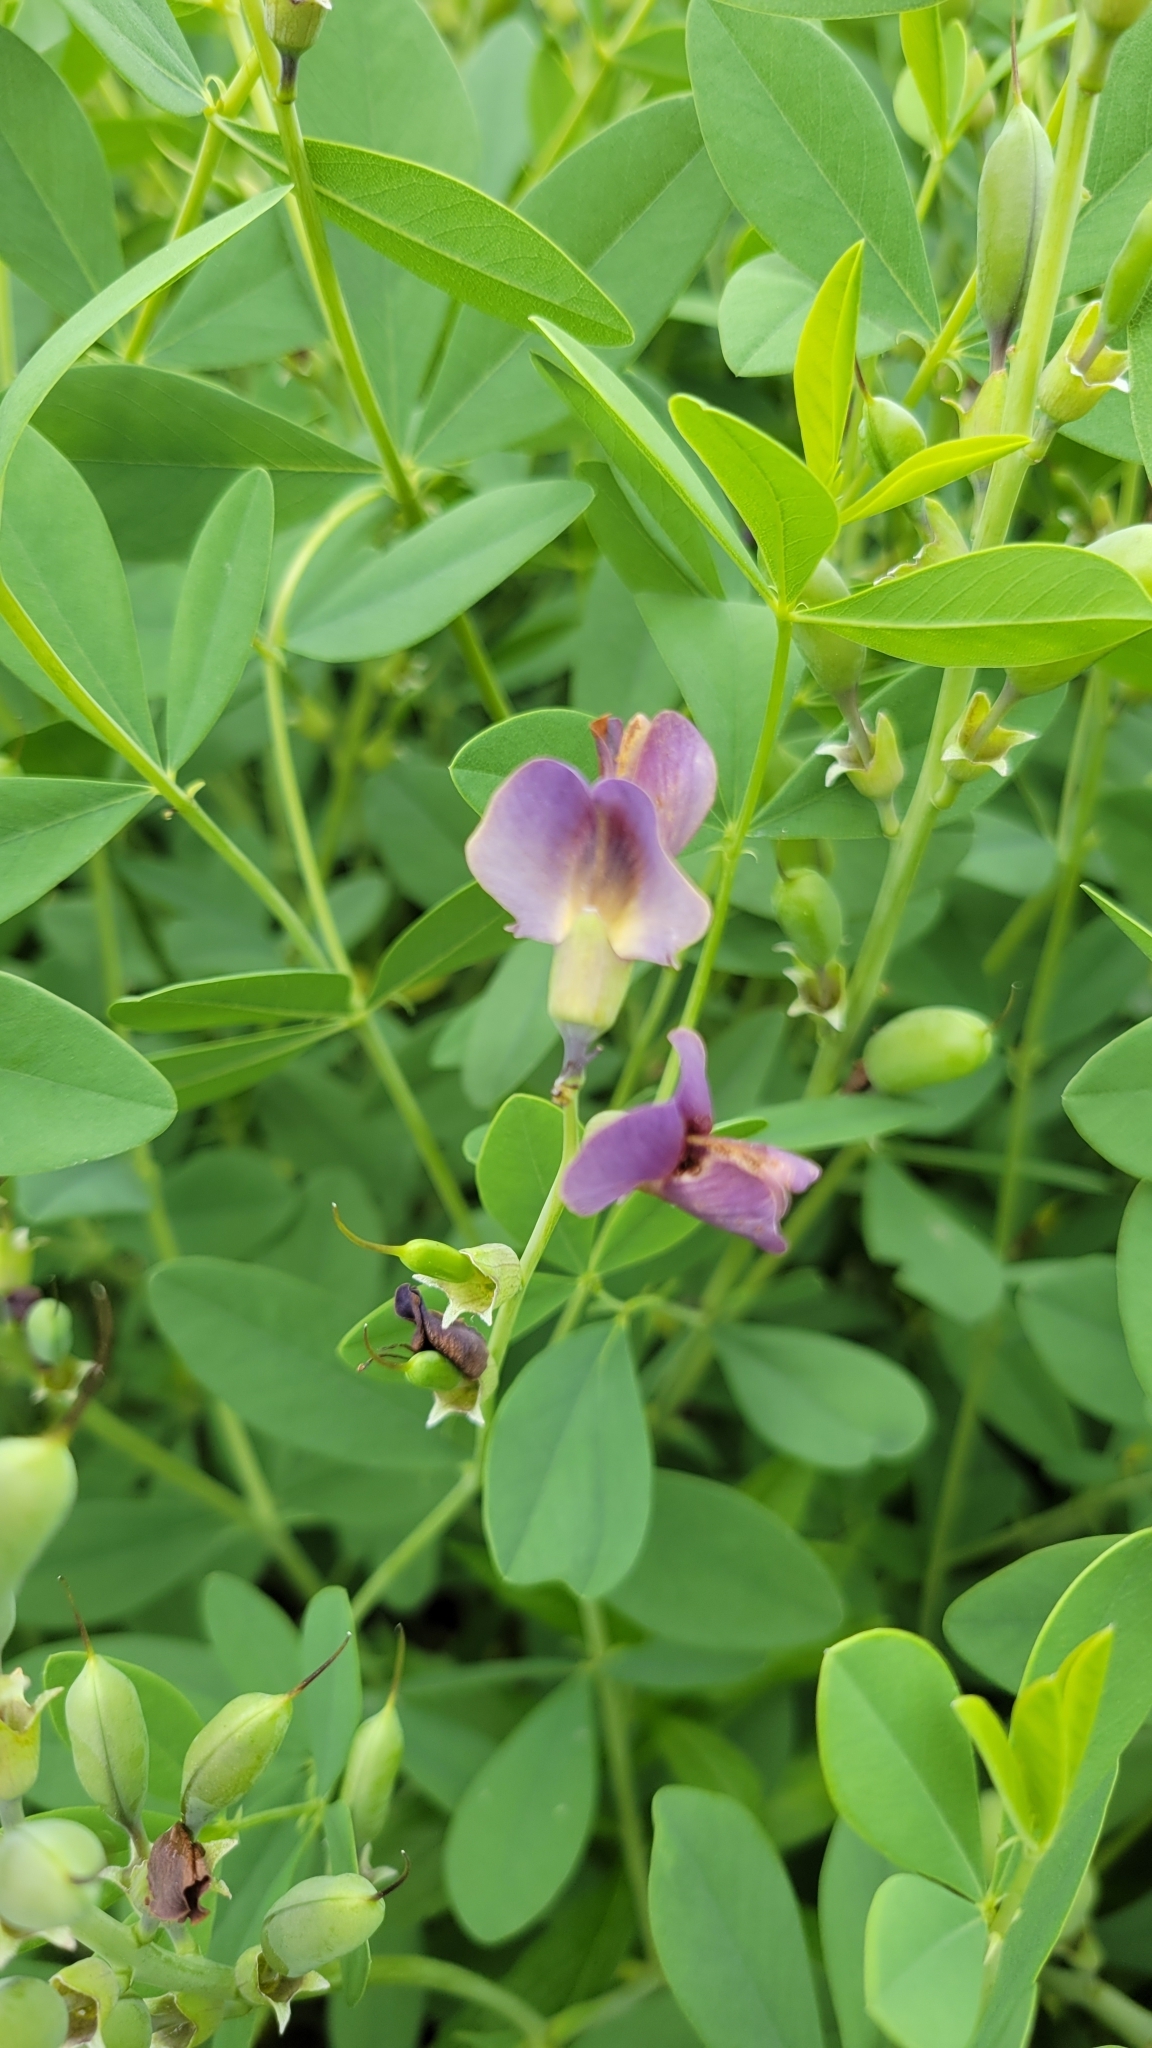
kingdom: Plantae
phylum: Tracheophyta
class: Magnoliopsida
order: Fabales
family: Fabaceae
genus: Baptisia
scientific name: Baptisia australis
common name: Blue false indigo
